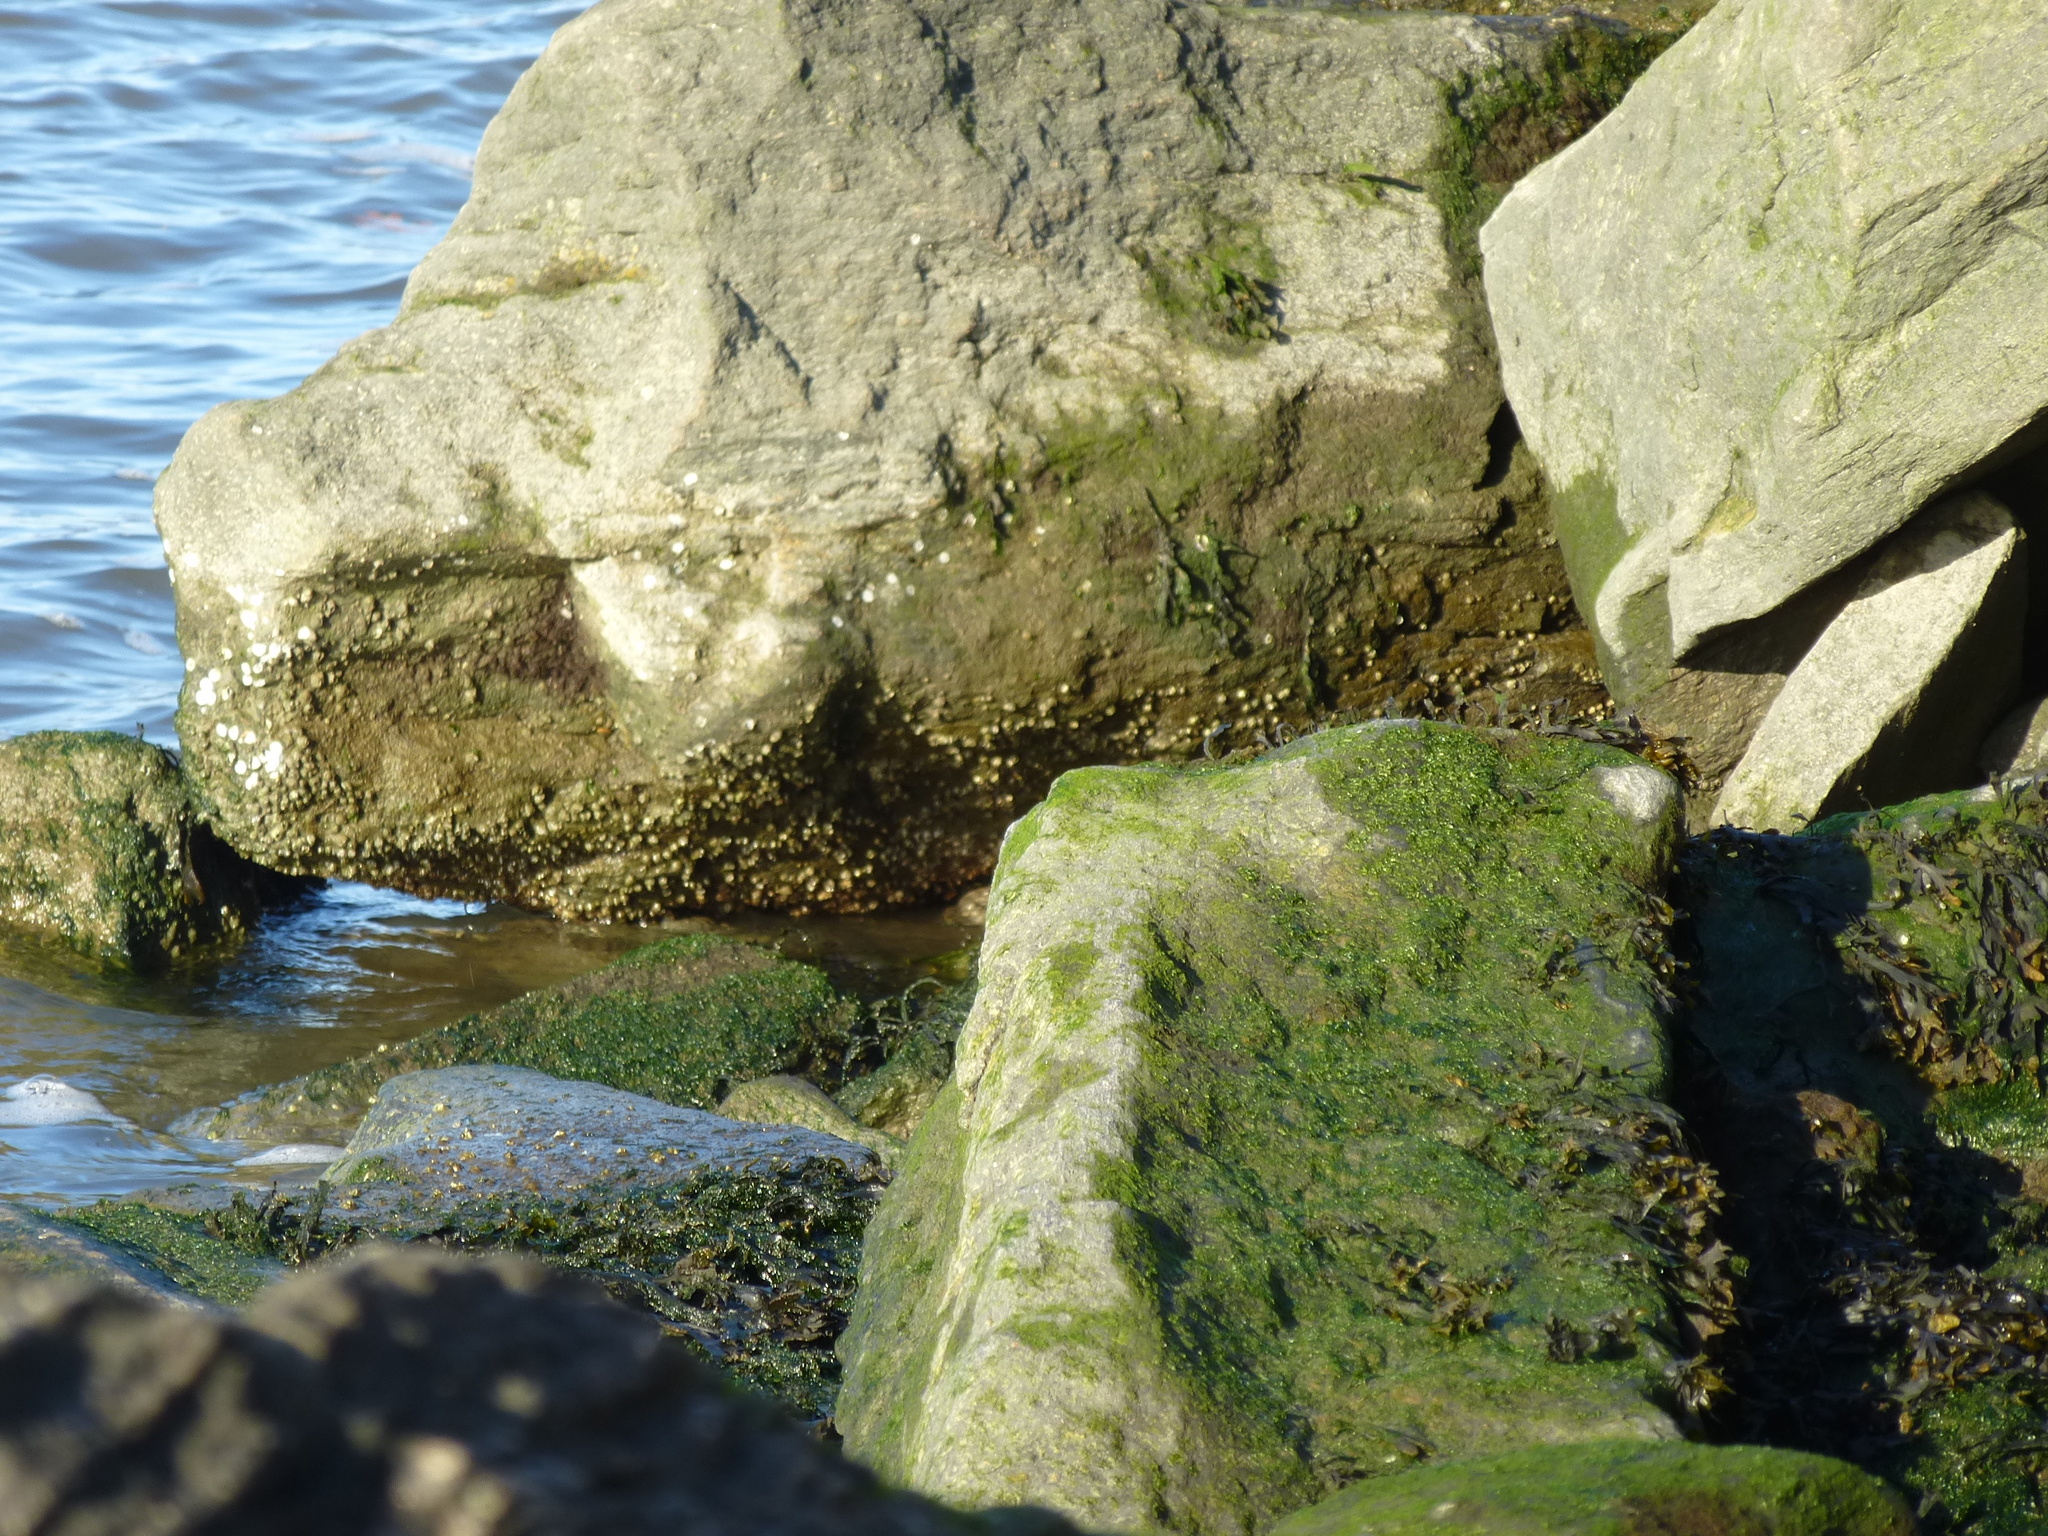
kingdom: Animalia
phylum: Arthropoda
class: Maxillopoda
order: Sessilia
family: Balanidae
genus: Amphibalanus
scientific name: Amphibalanus improvisus
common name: Bay barnacle
